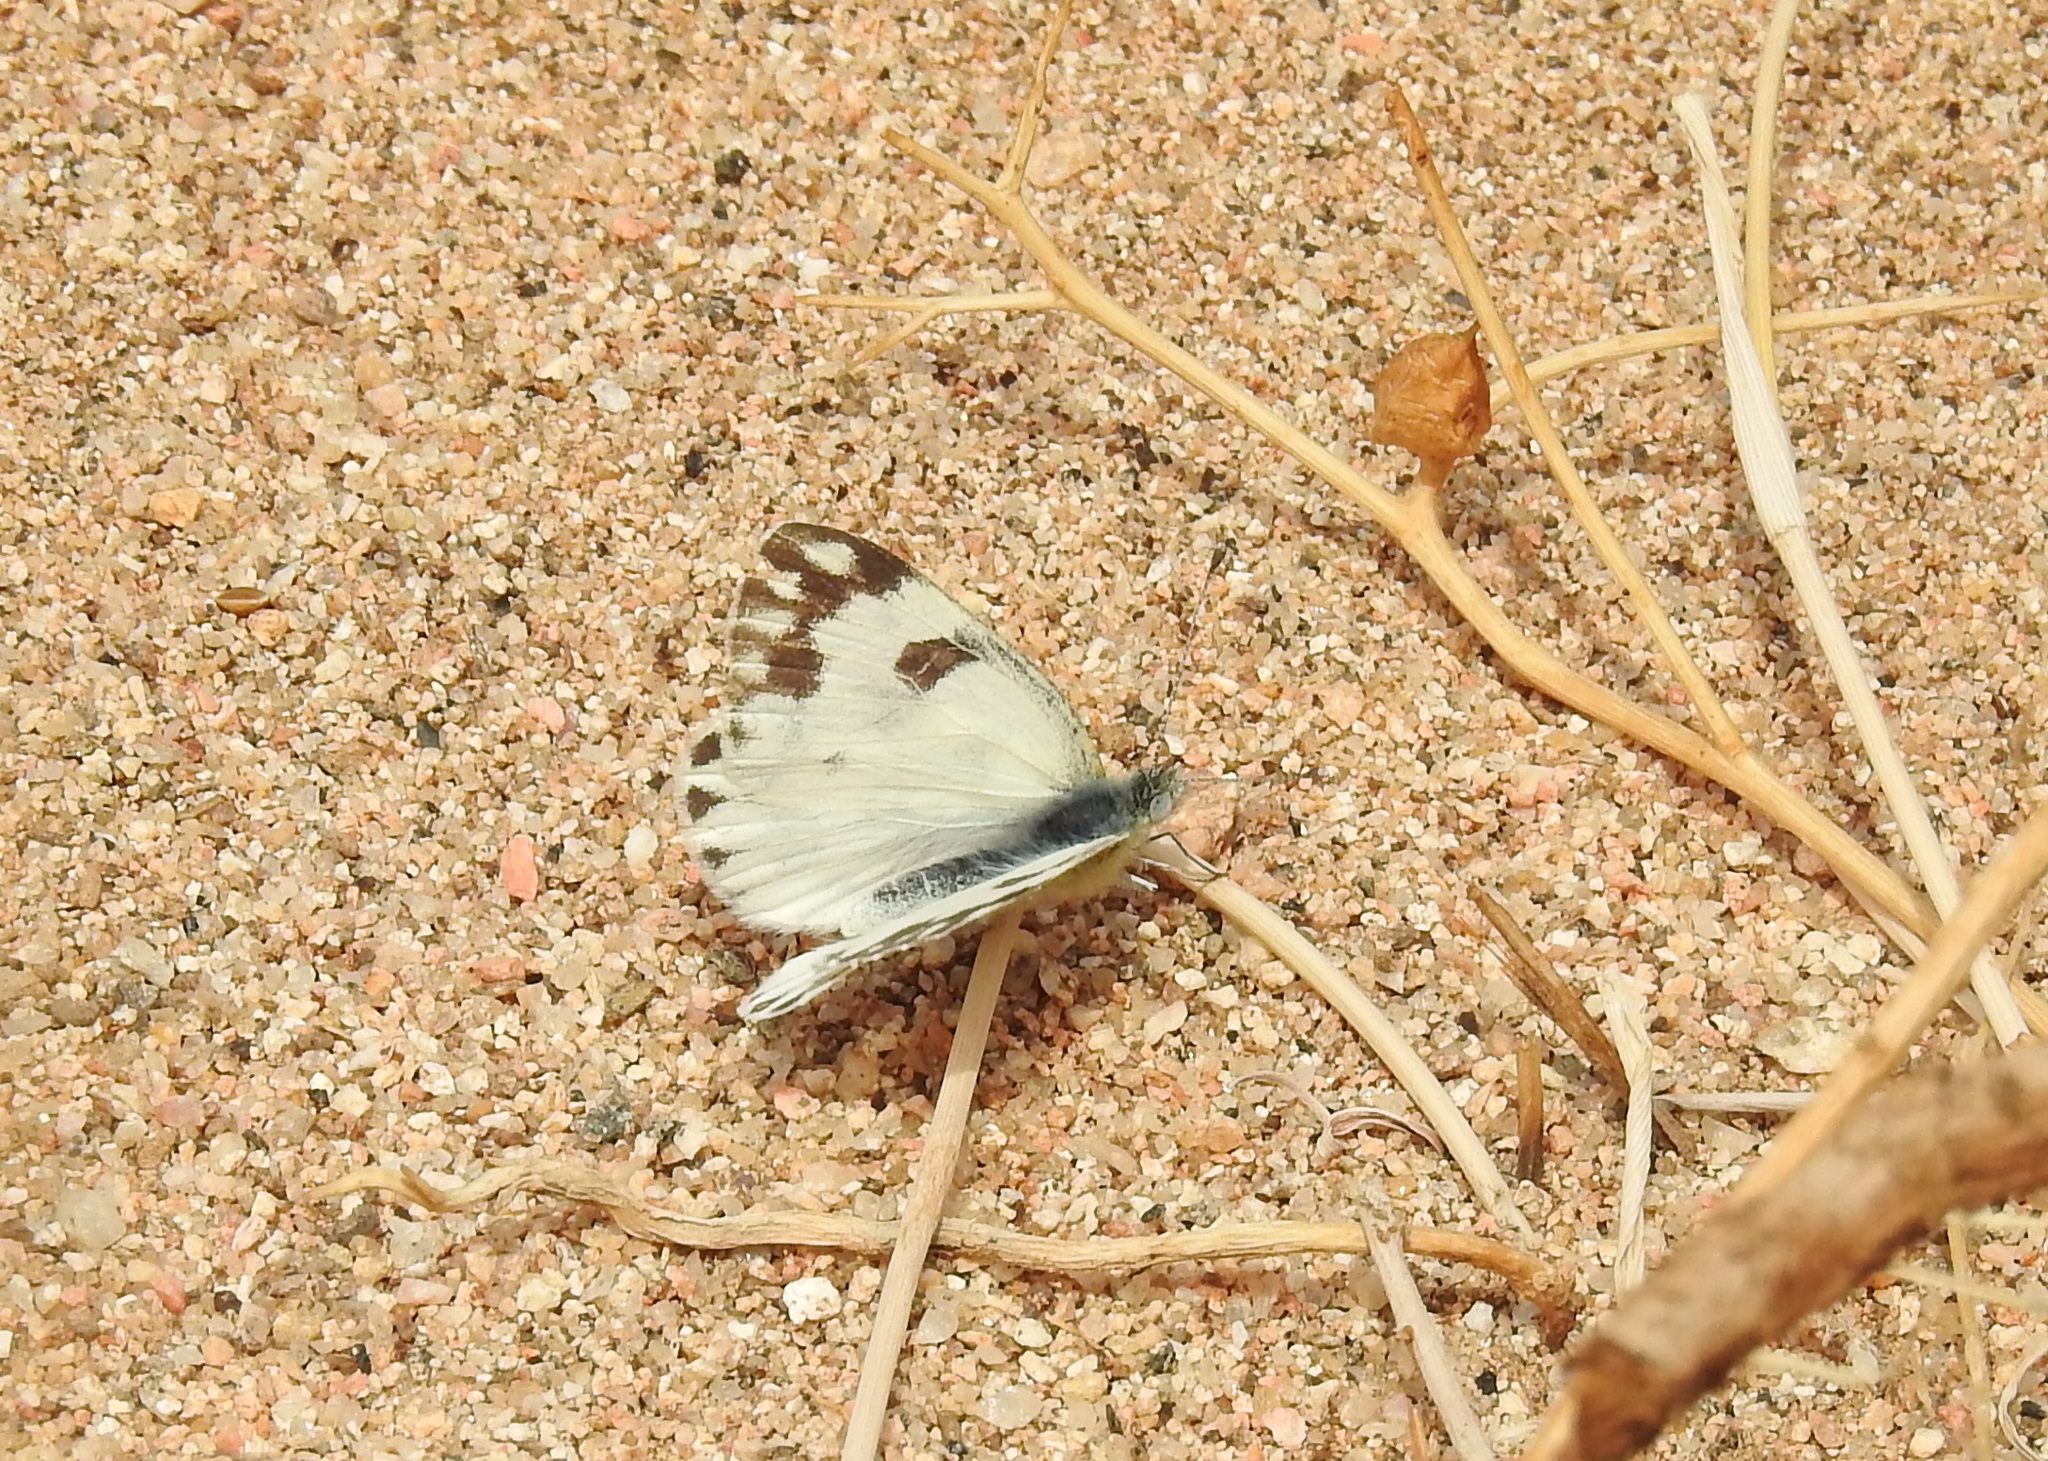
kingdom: Animalia
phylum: Arthropoda
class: Insecta
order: Lepidoptera
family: Pieridae
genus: Pontia
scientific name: Pontia glauconome
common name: Desert bath white
